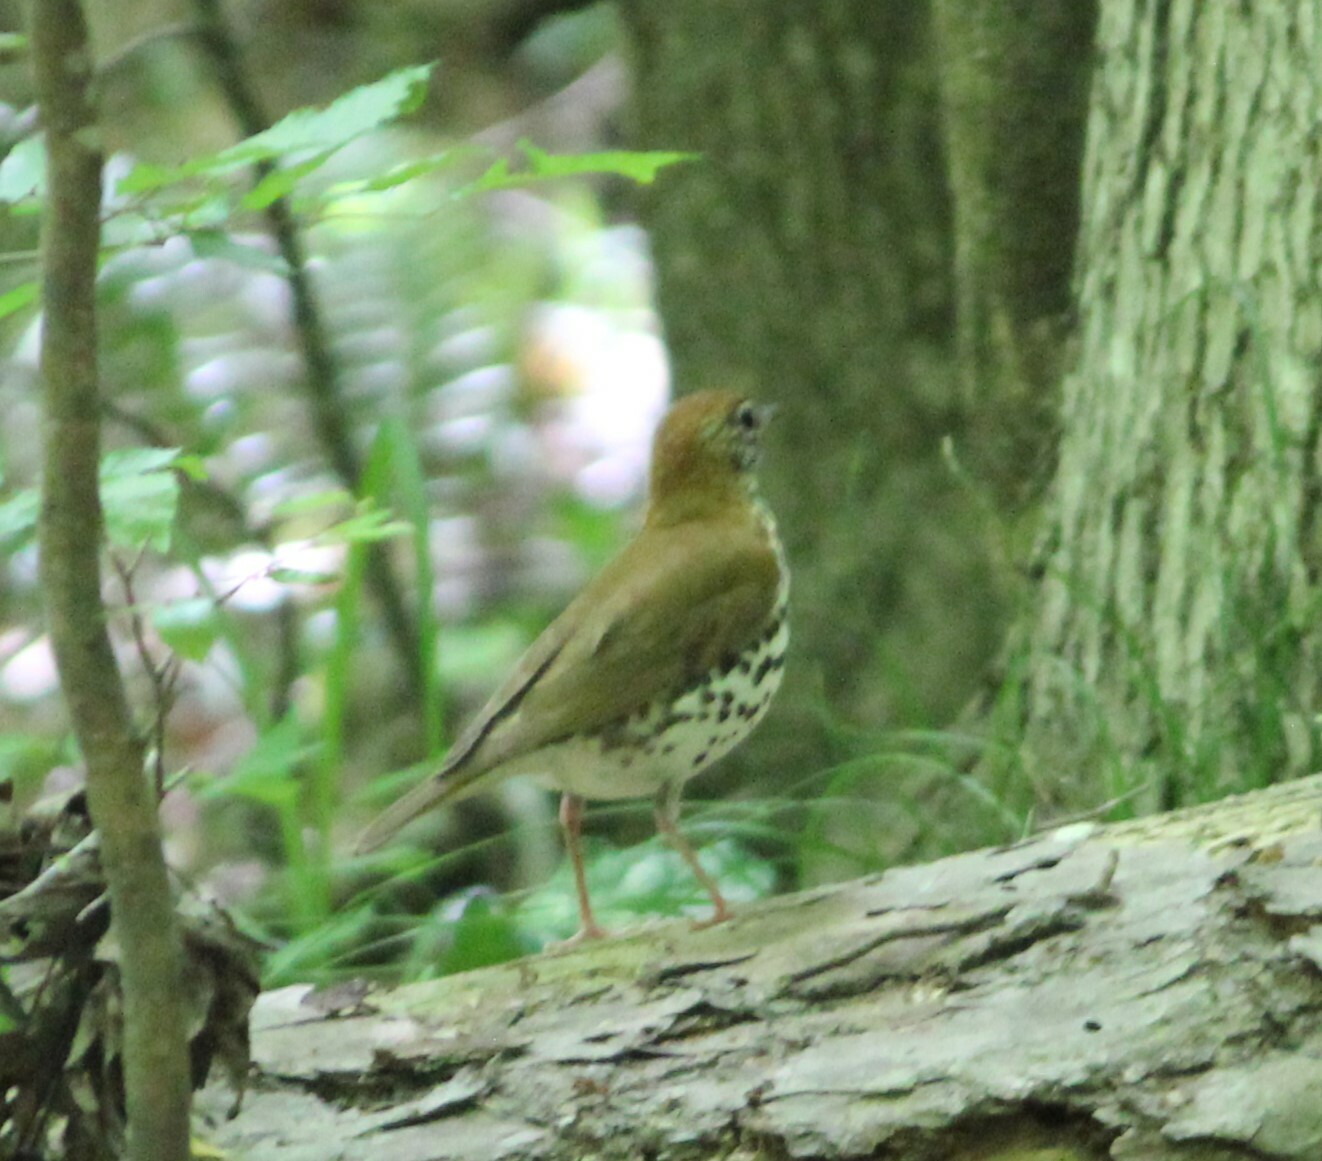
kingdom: Animalia
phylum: Chordata
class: Aves
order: Passeriformes
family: Turdidae
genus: Hylocichla
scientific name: Hylocichla mustelina
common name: Wood thrush
